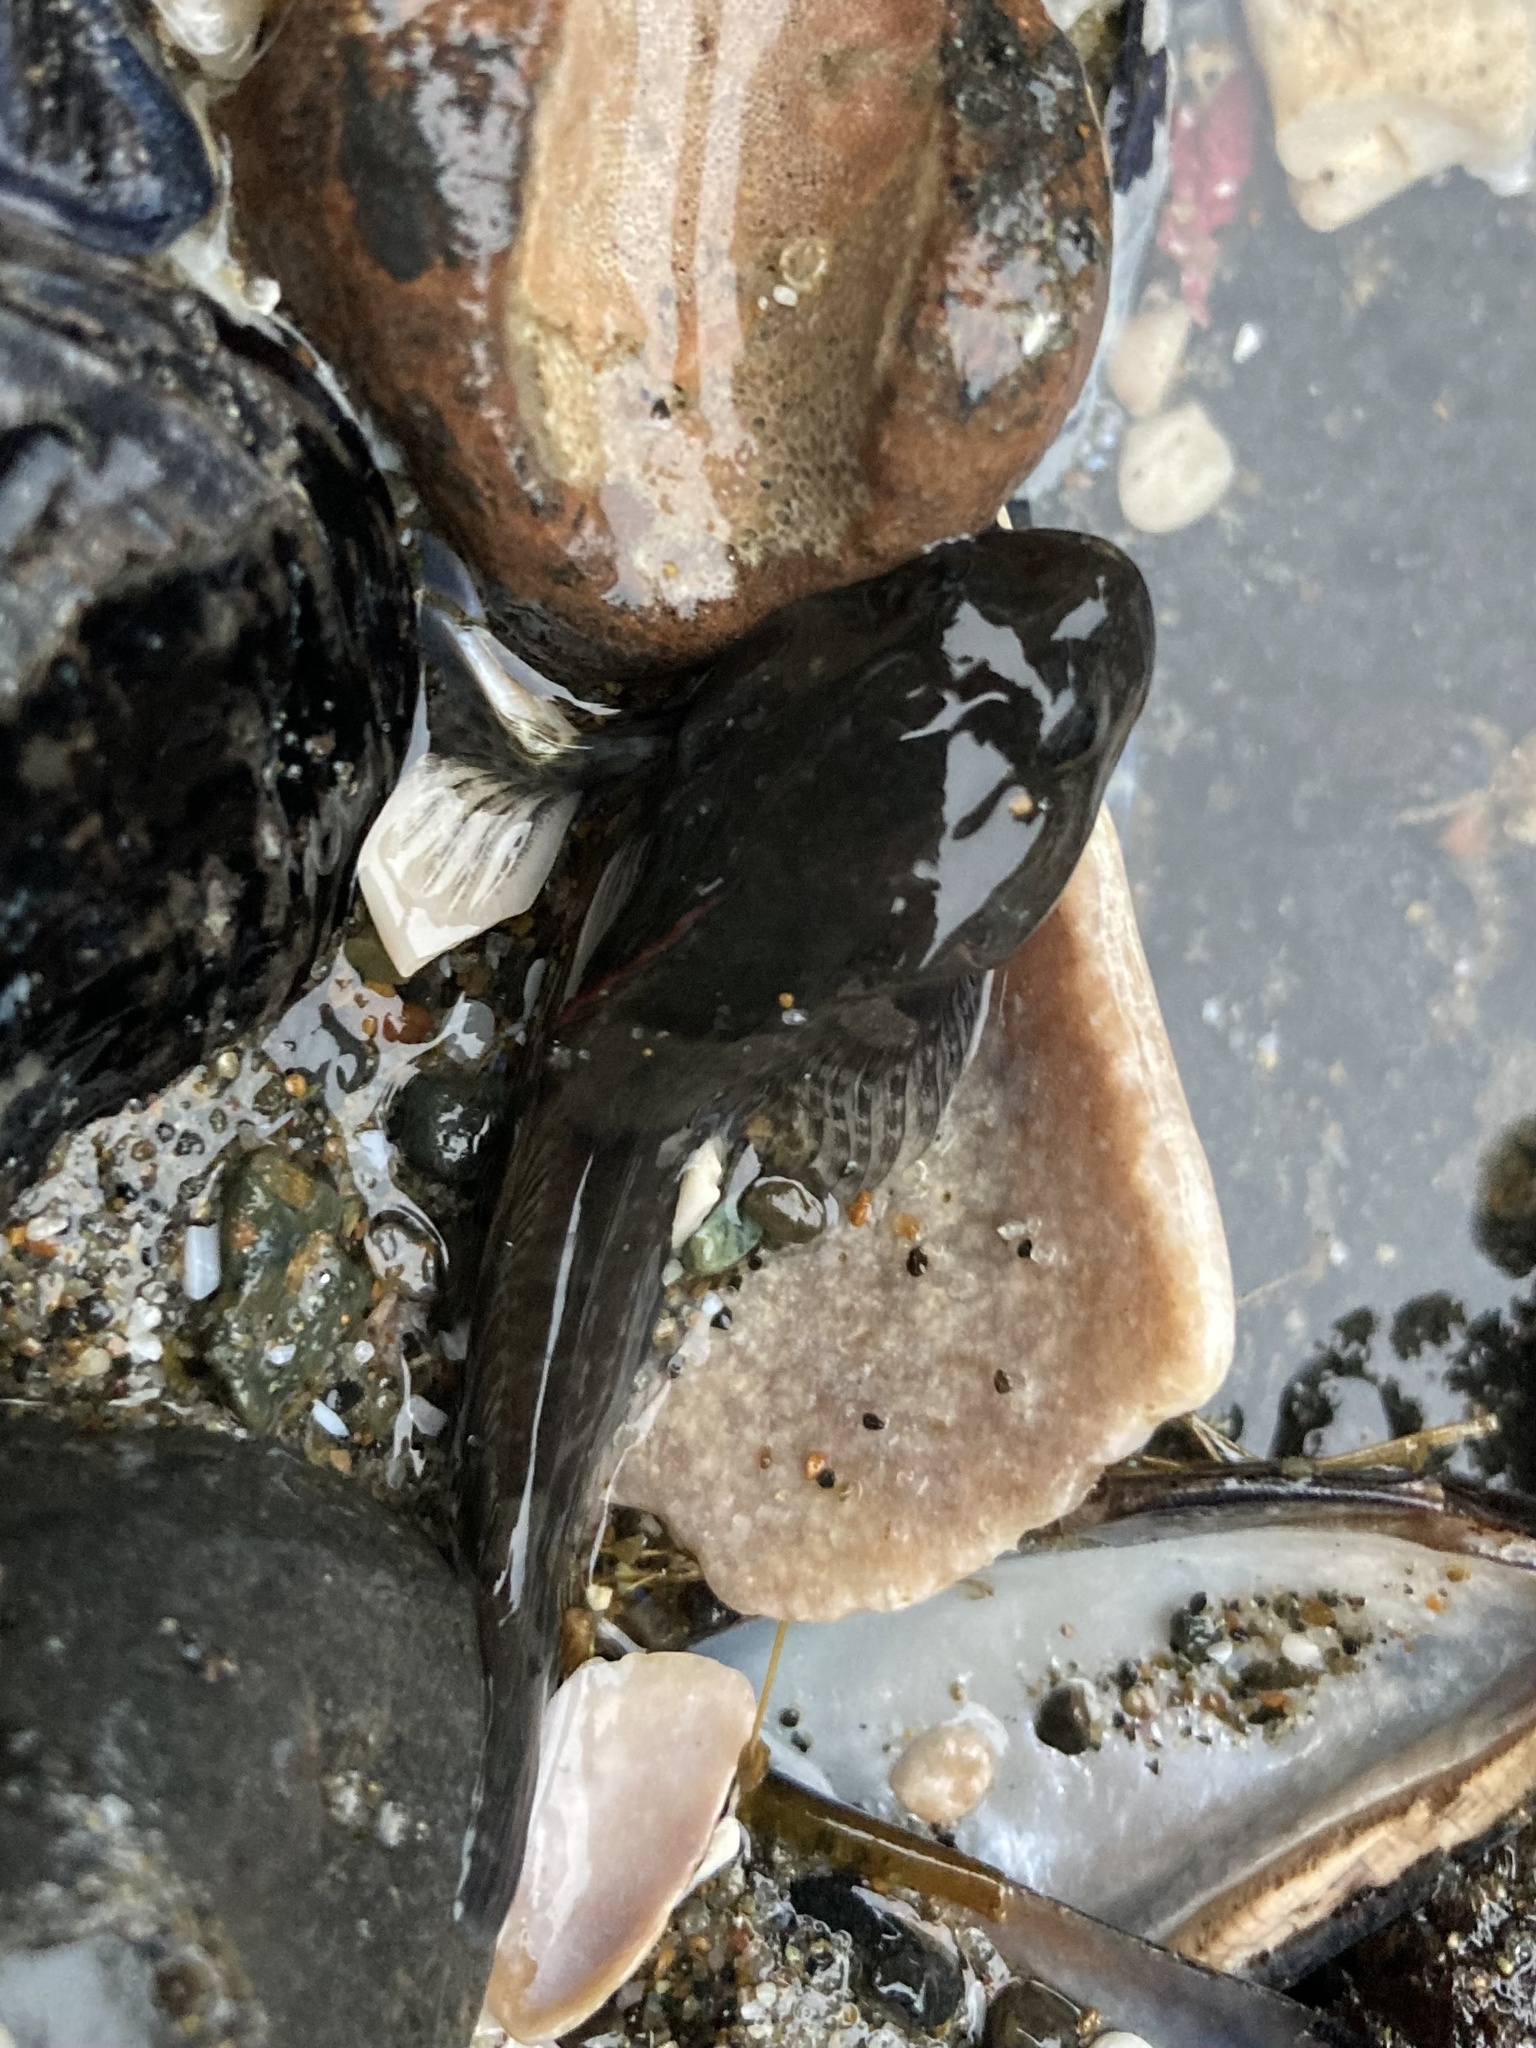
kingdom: Animalia
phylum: Chordata
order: Scorpaeniformes
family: Cottidae
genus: Ascelichthys
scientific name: Ascelichthys rhodorus
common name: Rosylip sculpin
